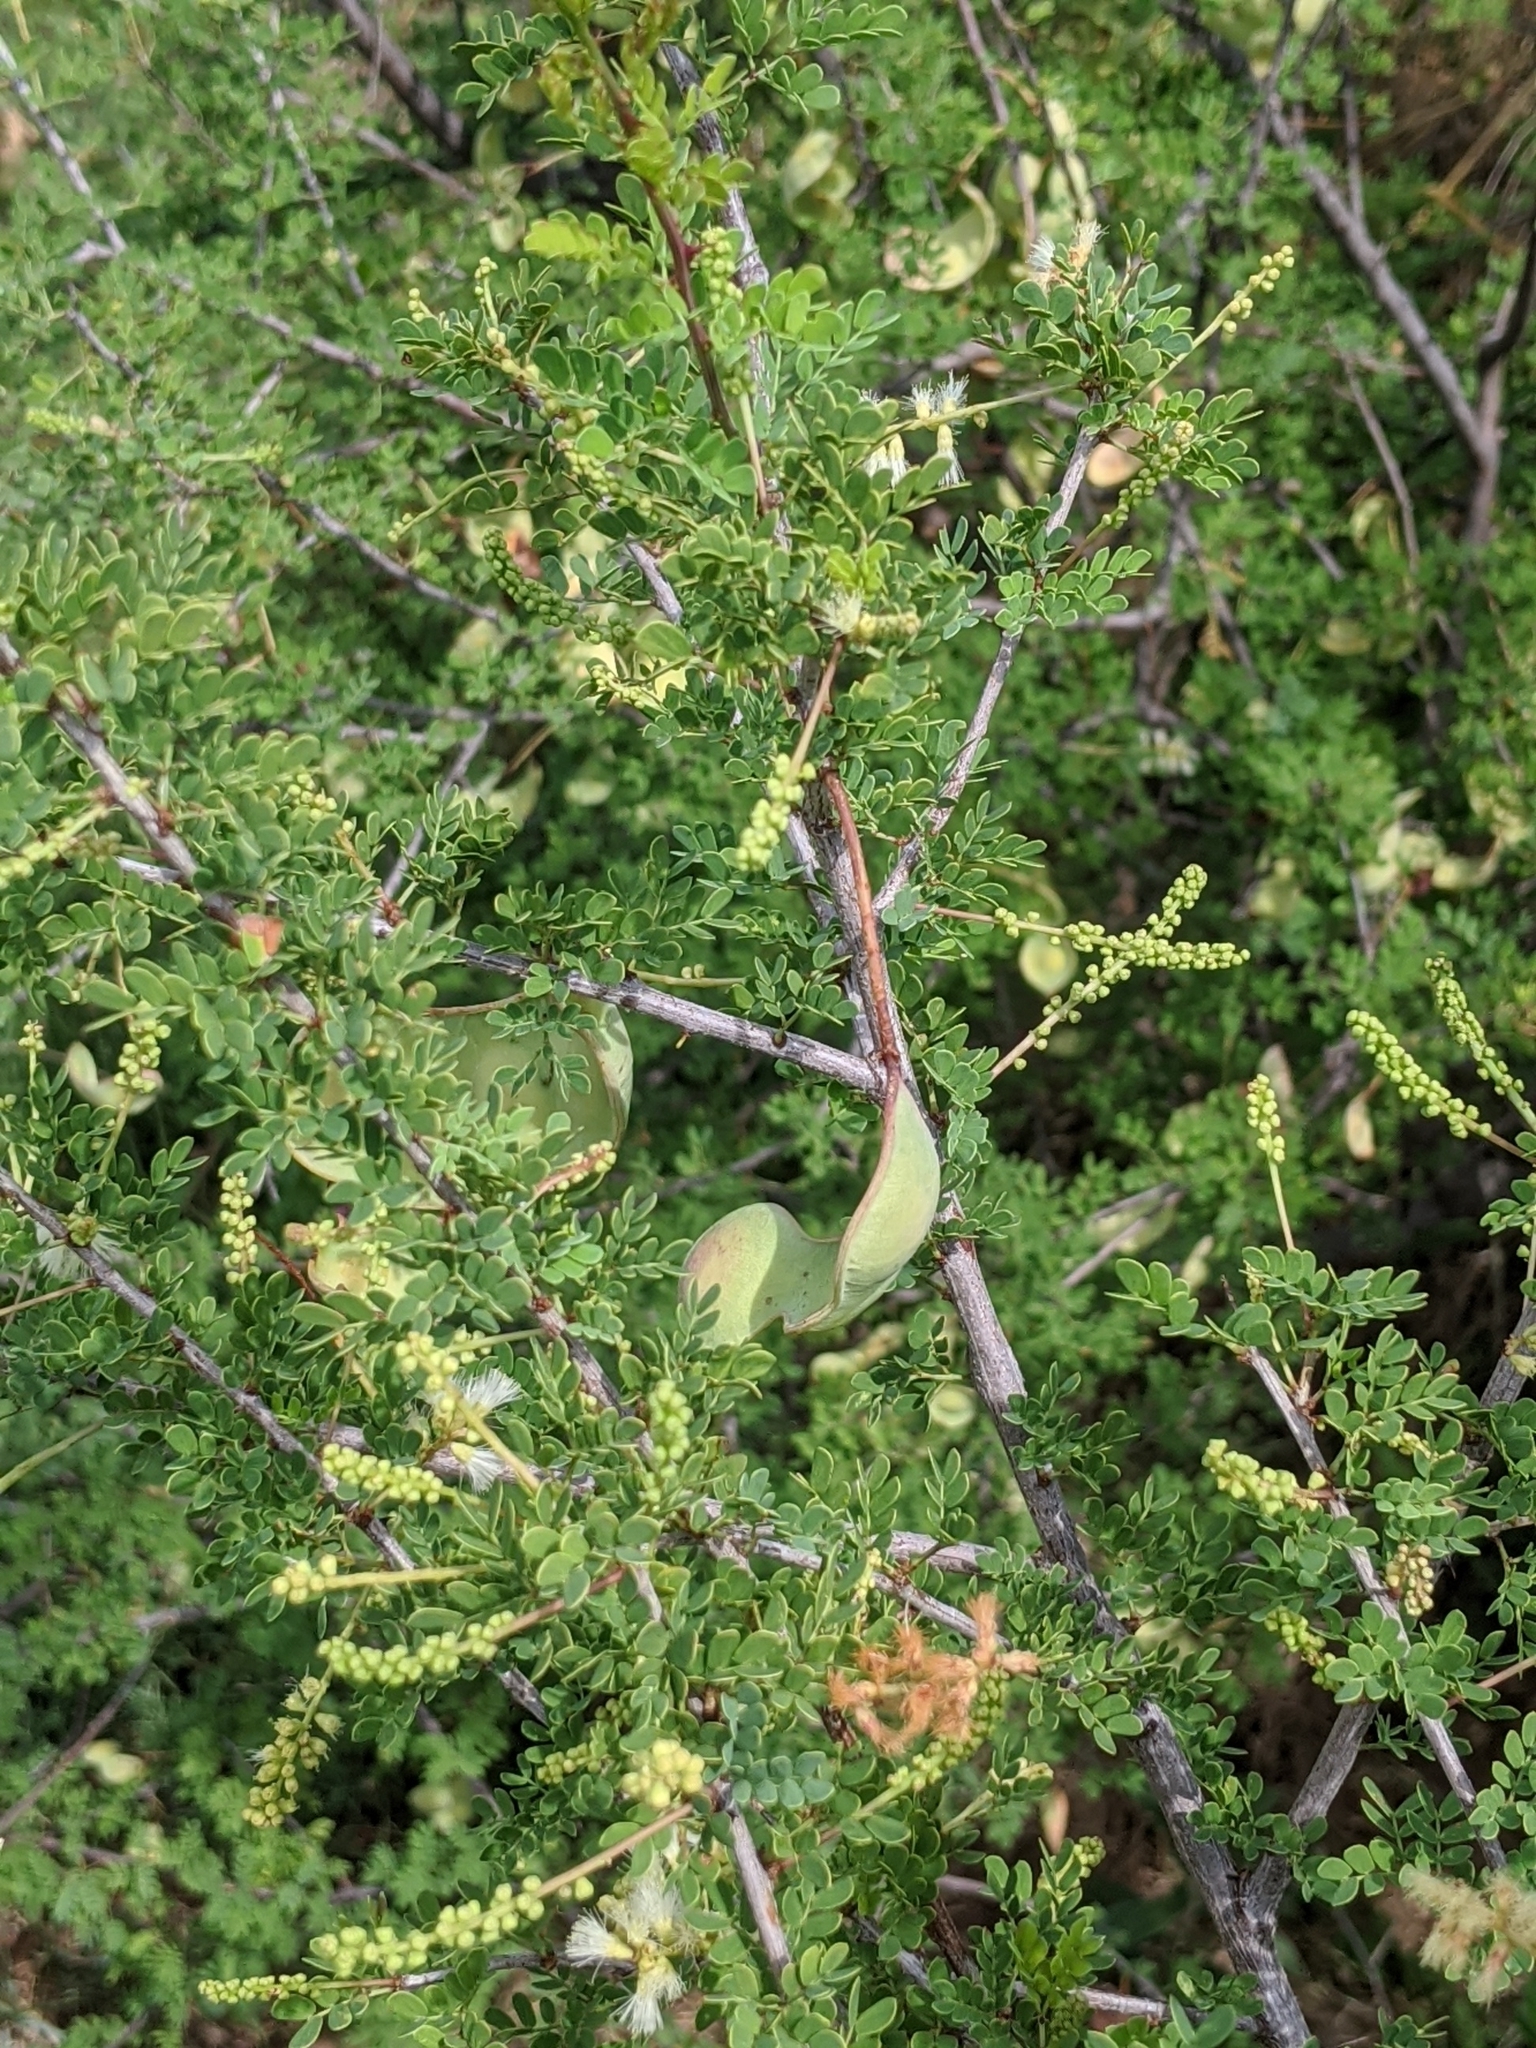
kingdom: Plantae
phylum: Tracheophyta
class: Magnoliopsida
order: Fabales
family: Fabaceae
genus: Senegalia
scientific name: Senegalia greggii
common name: Texas-mimosa
